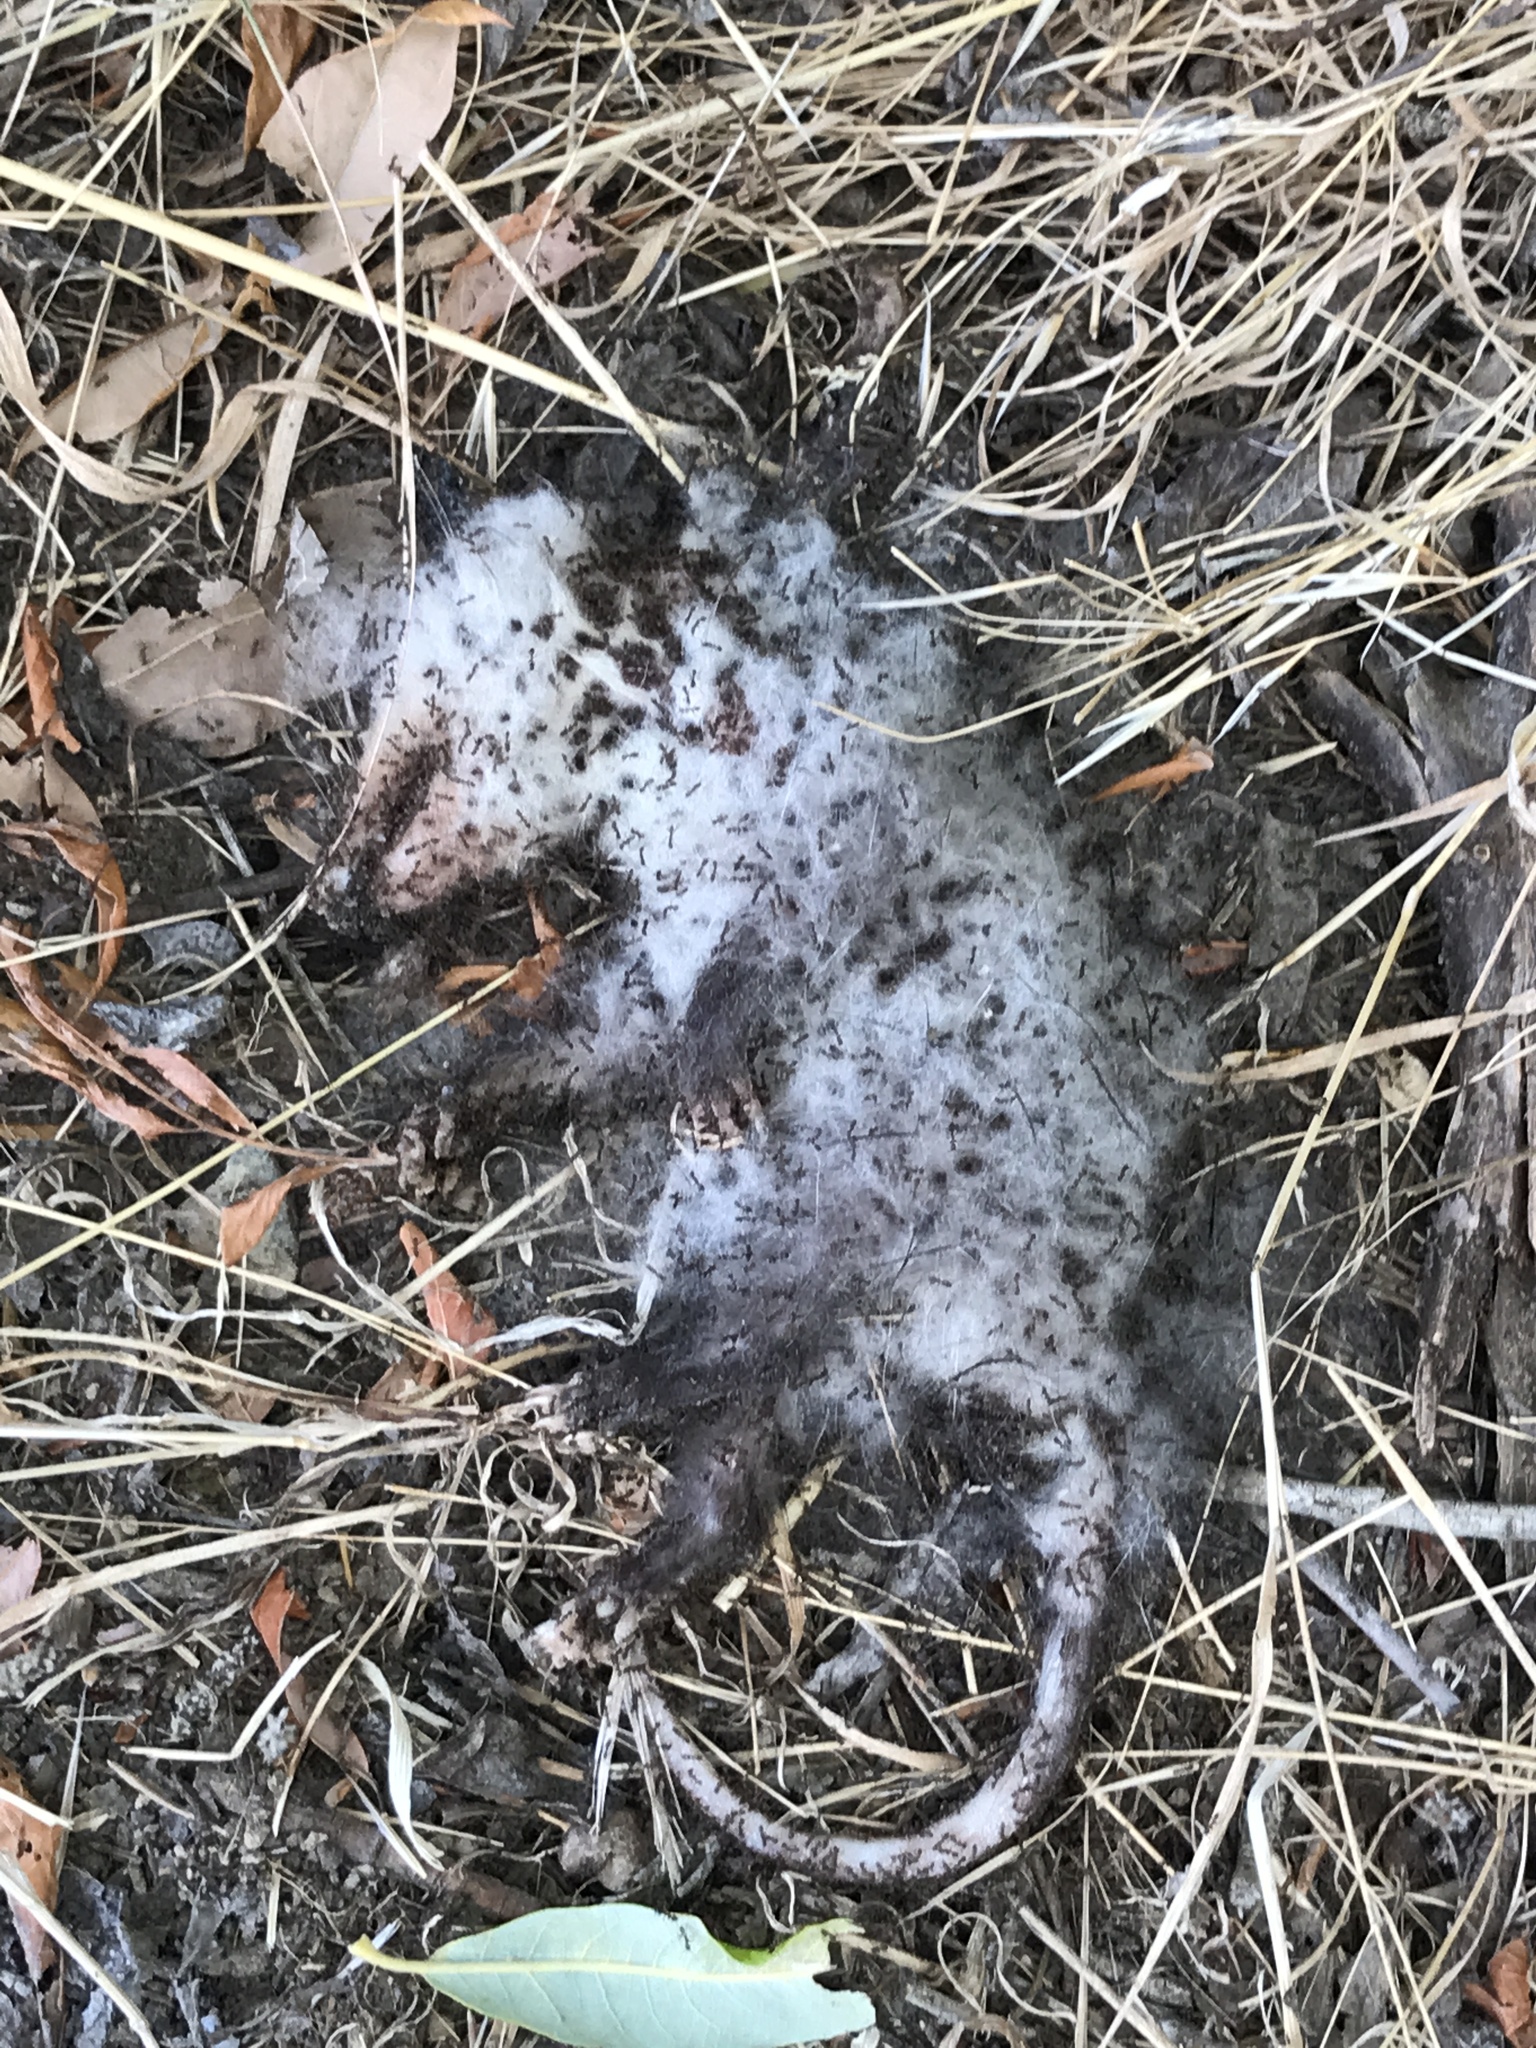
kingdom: Animalia
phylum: Chordata
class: Mammalia
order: Didelphimorphia
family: Didelphidae
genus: Didelphis
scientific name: Didelphis virginiana
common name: Virginia opossum
